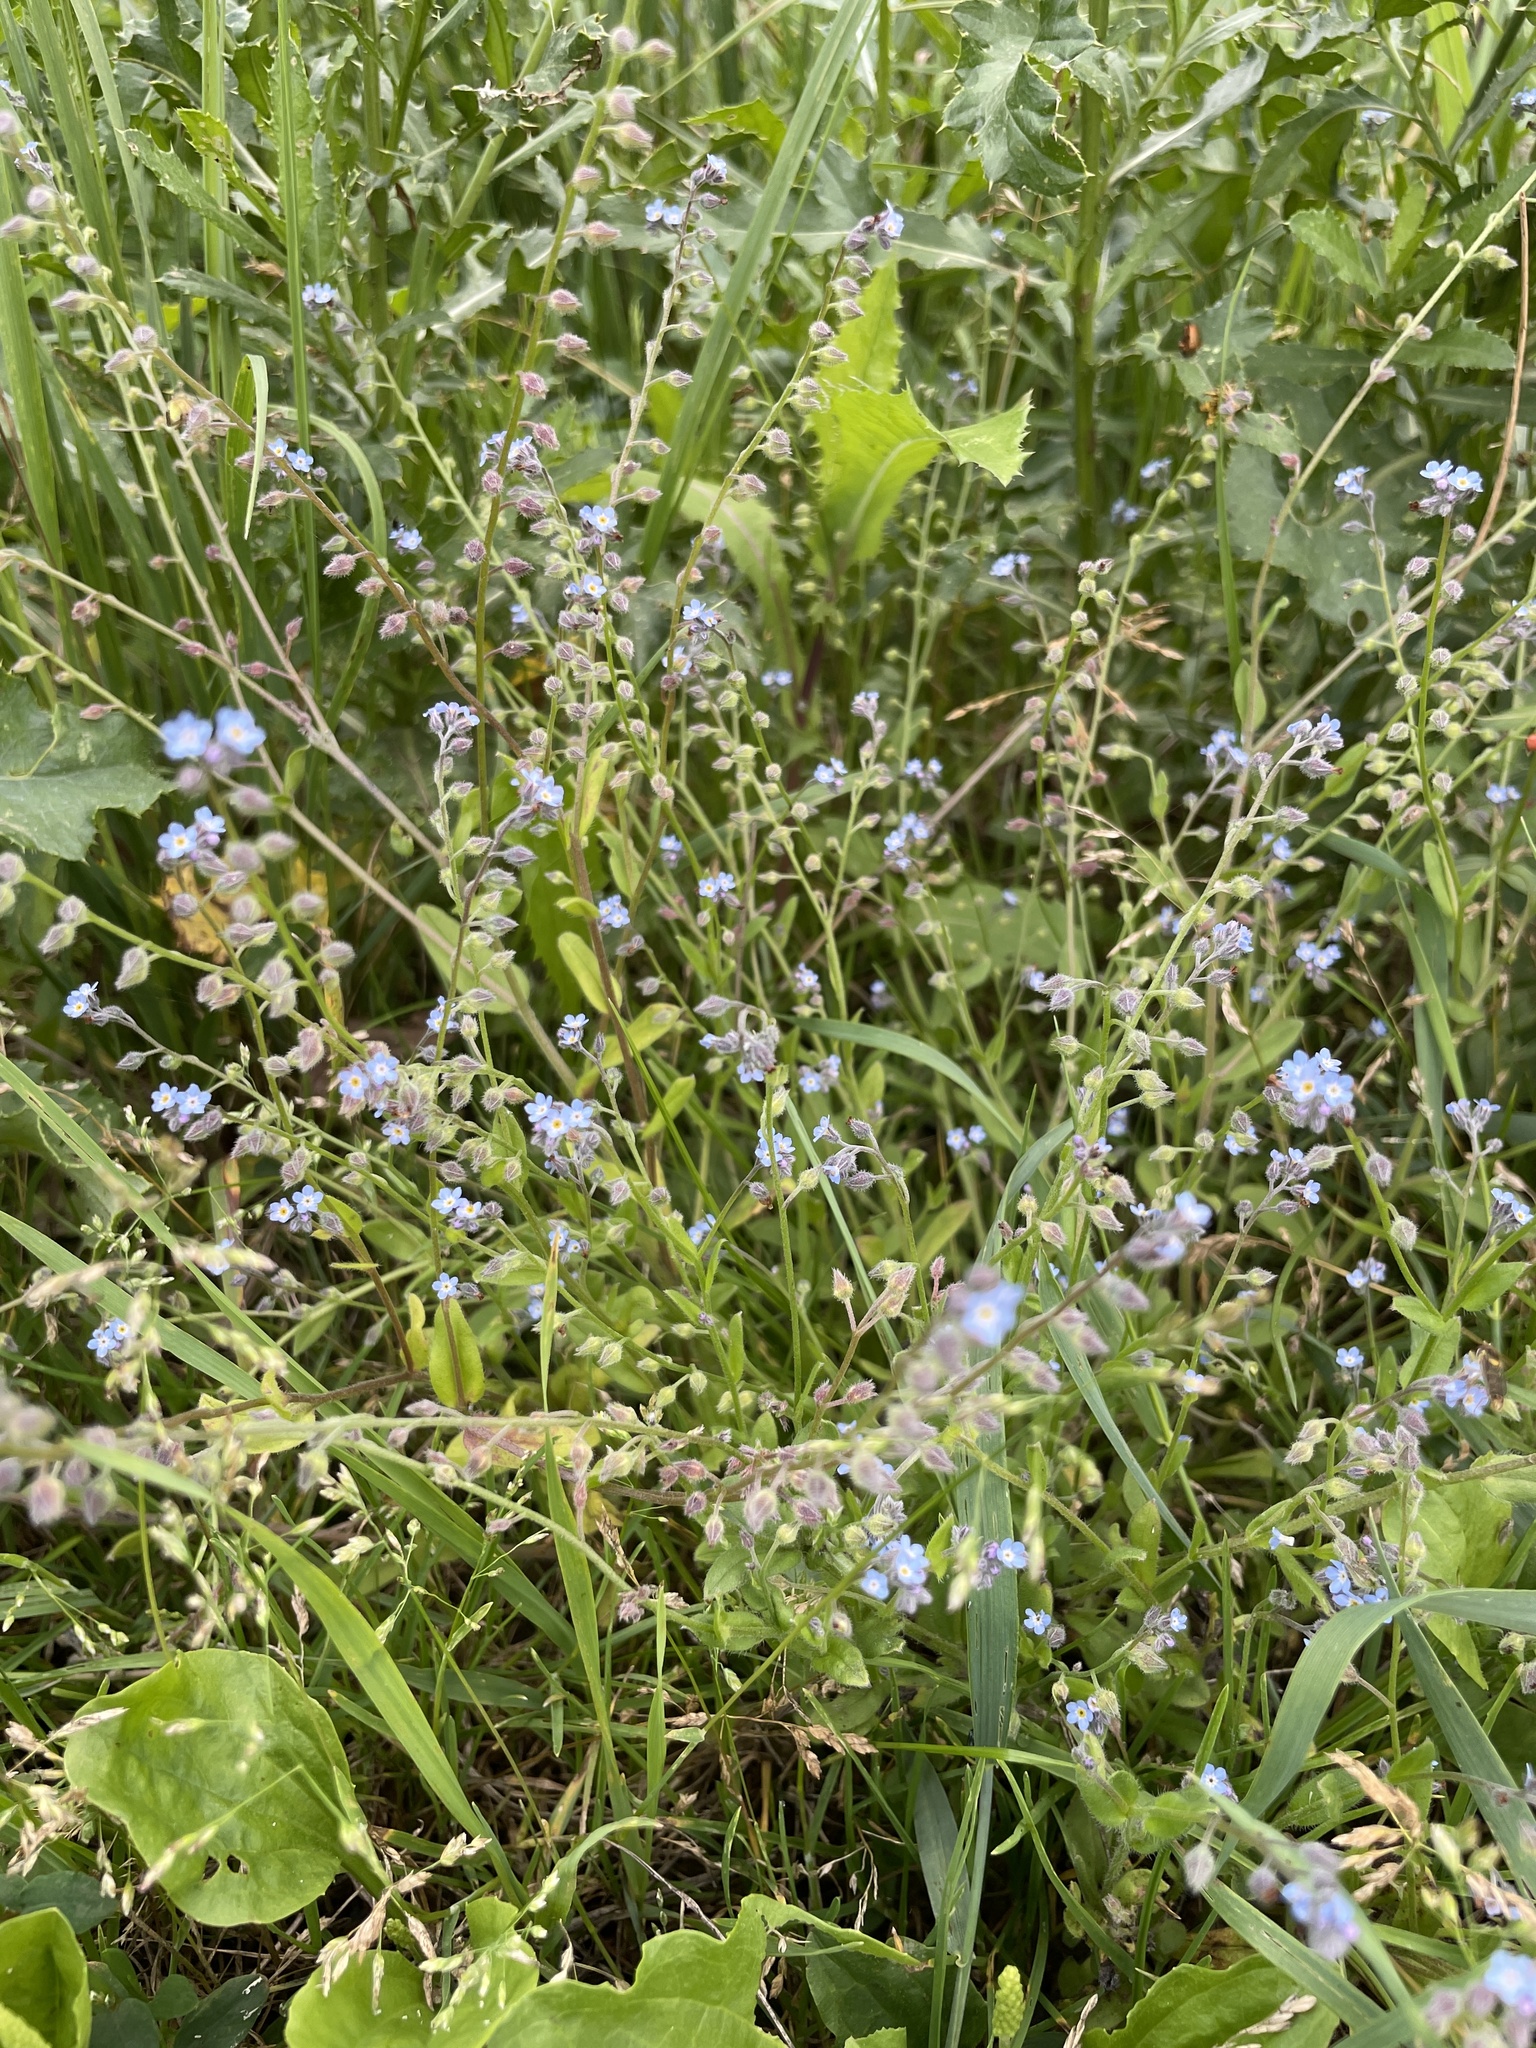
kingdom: Plantae
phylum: Tracheophyta
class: Magnoliopsida
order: Boraginales
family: Boraginaceae
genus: Myosotis
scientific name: Myosotis arvensis
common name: Field forget-me-not
